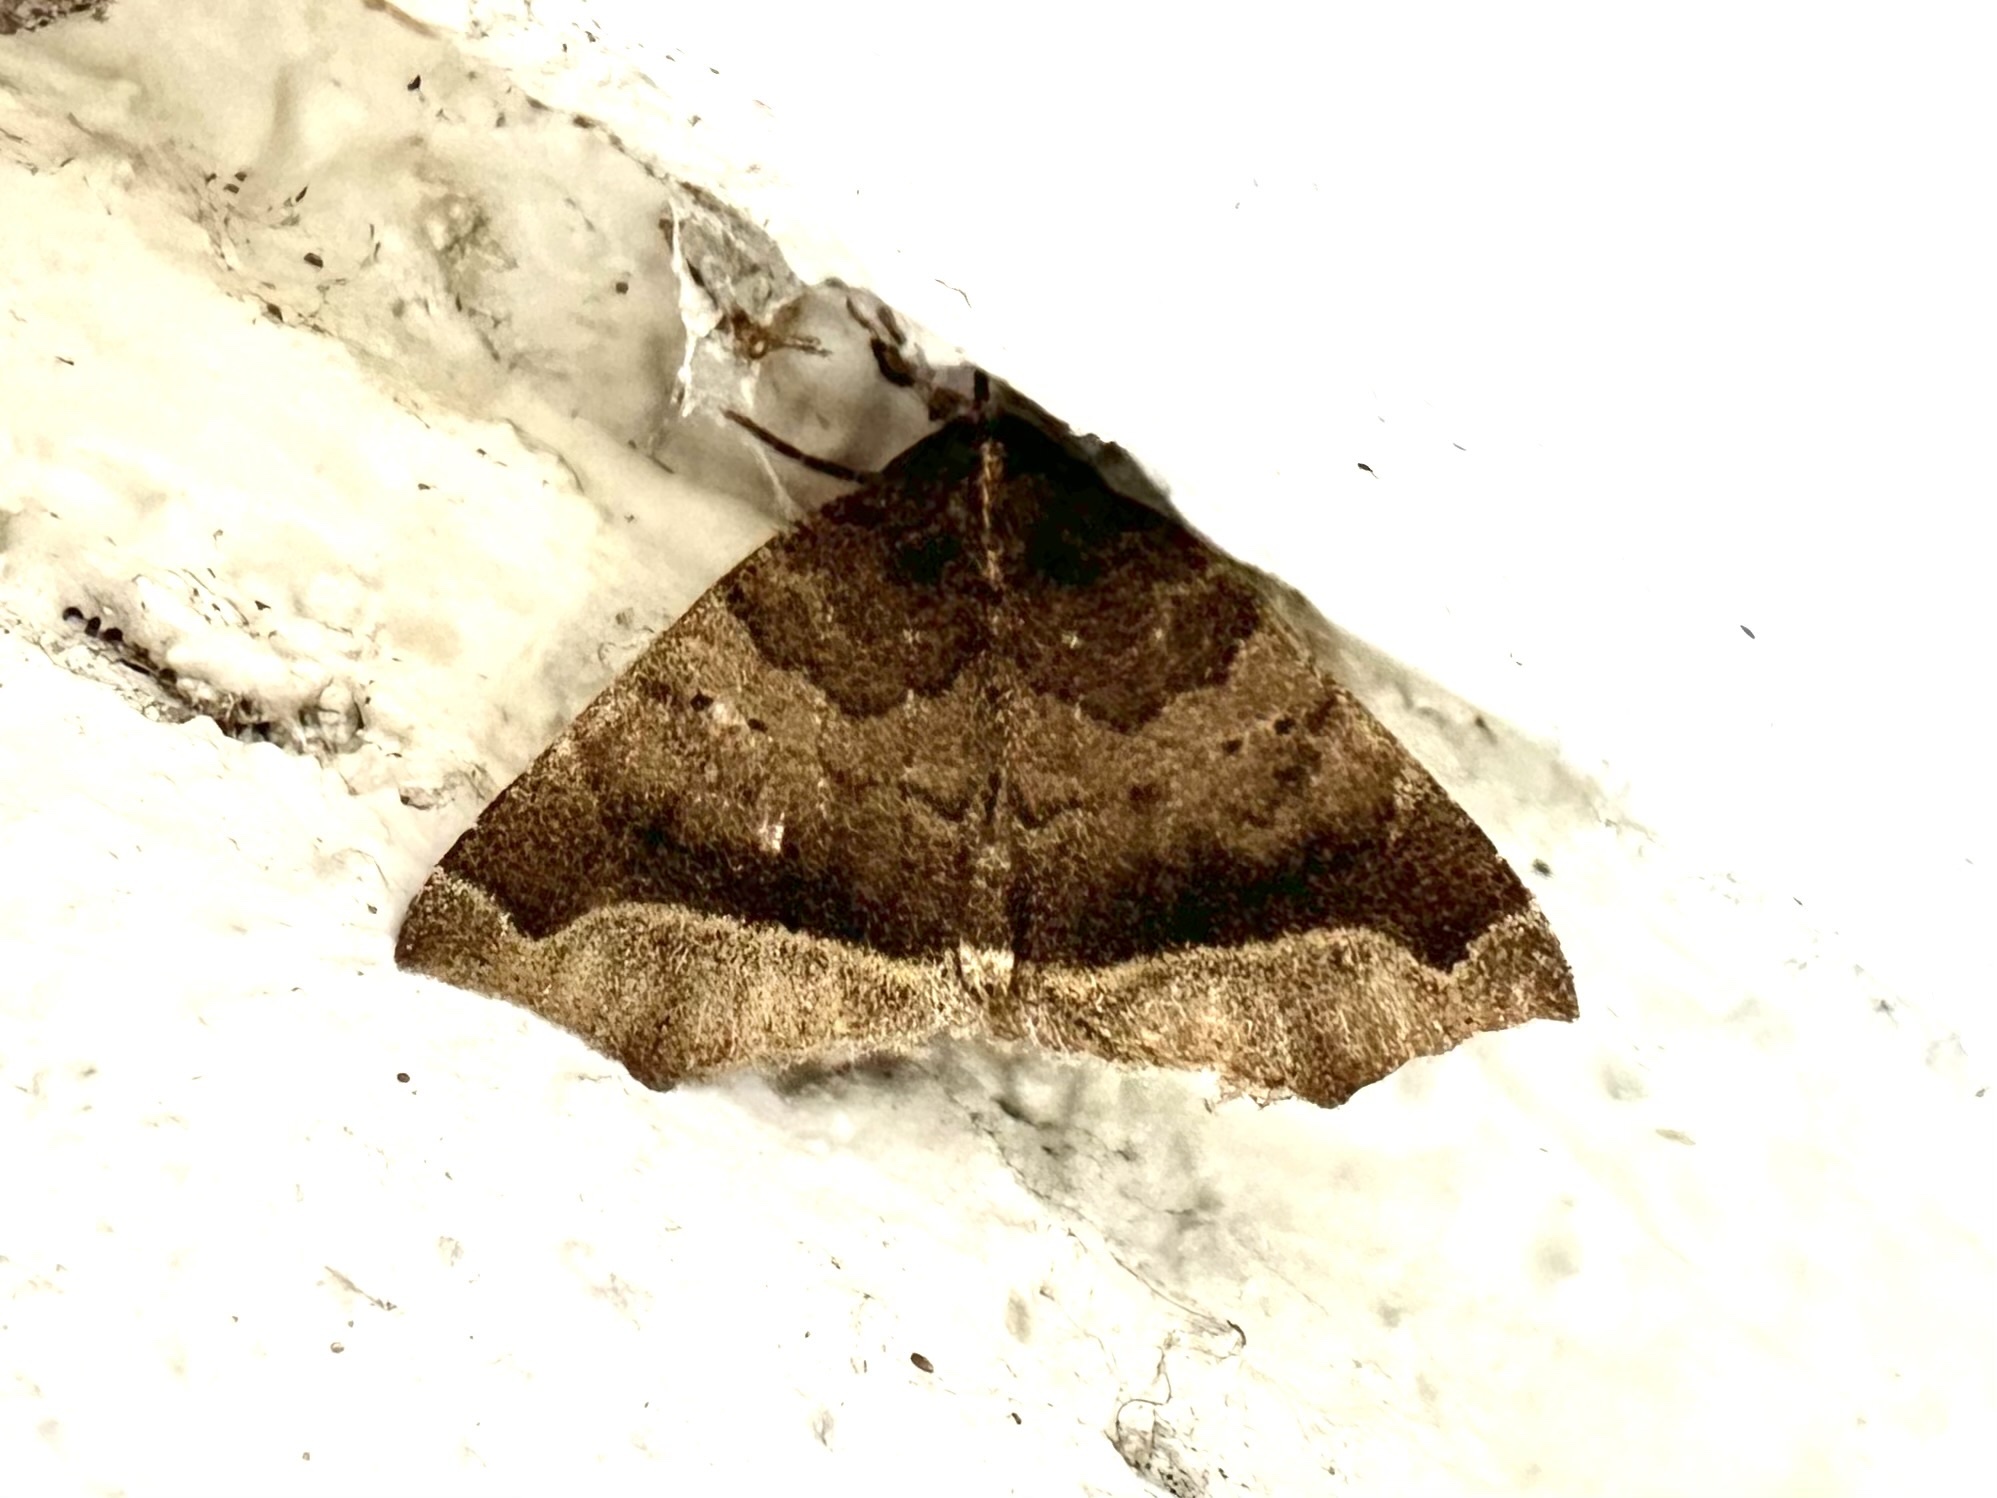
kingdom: Animalia
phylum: Arthropoda
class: Insecta
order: Lepidoptera
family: Erebidae
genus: Bendisodes
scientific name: Bendisodes aeolia
